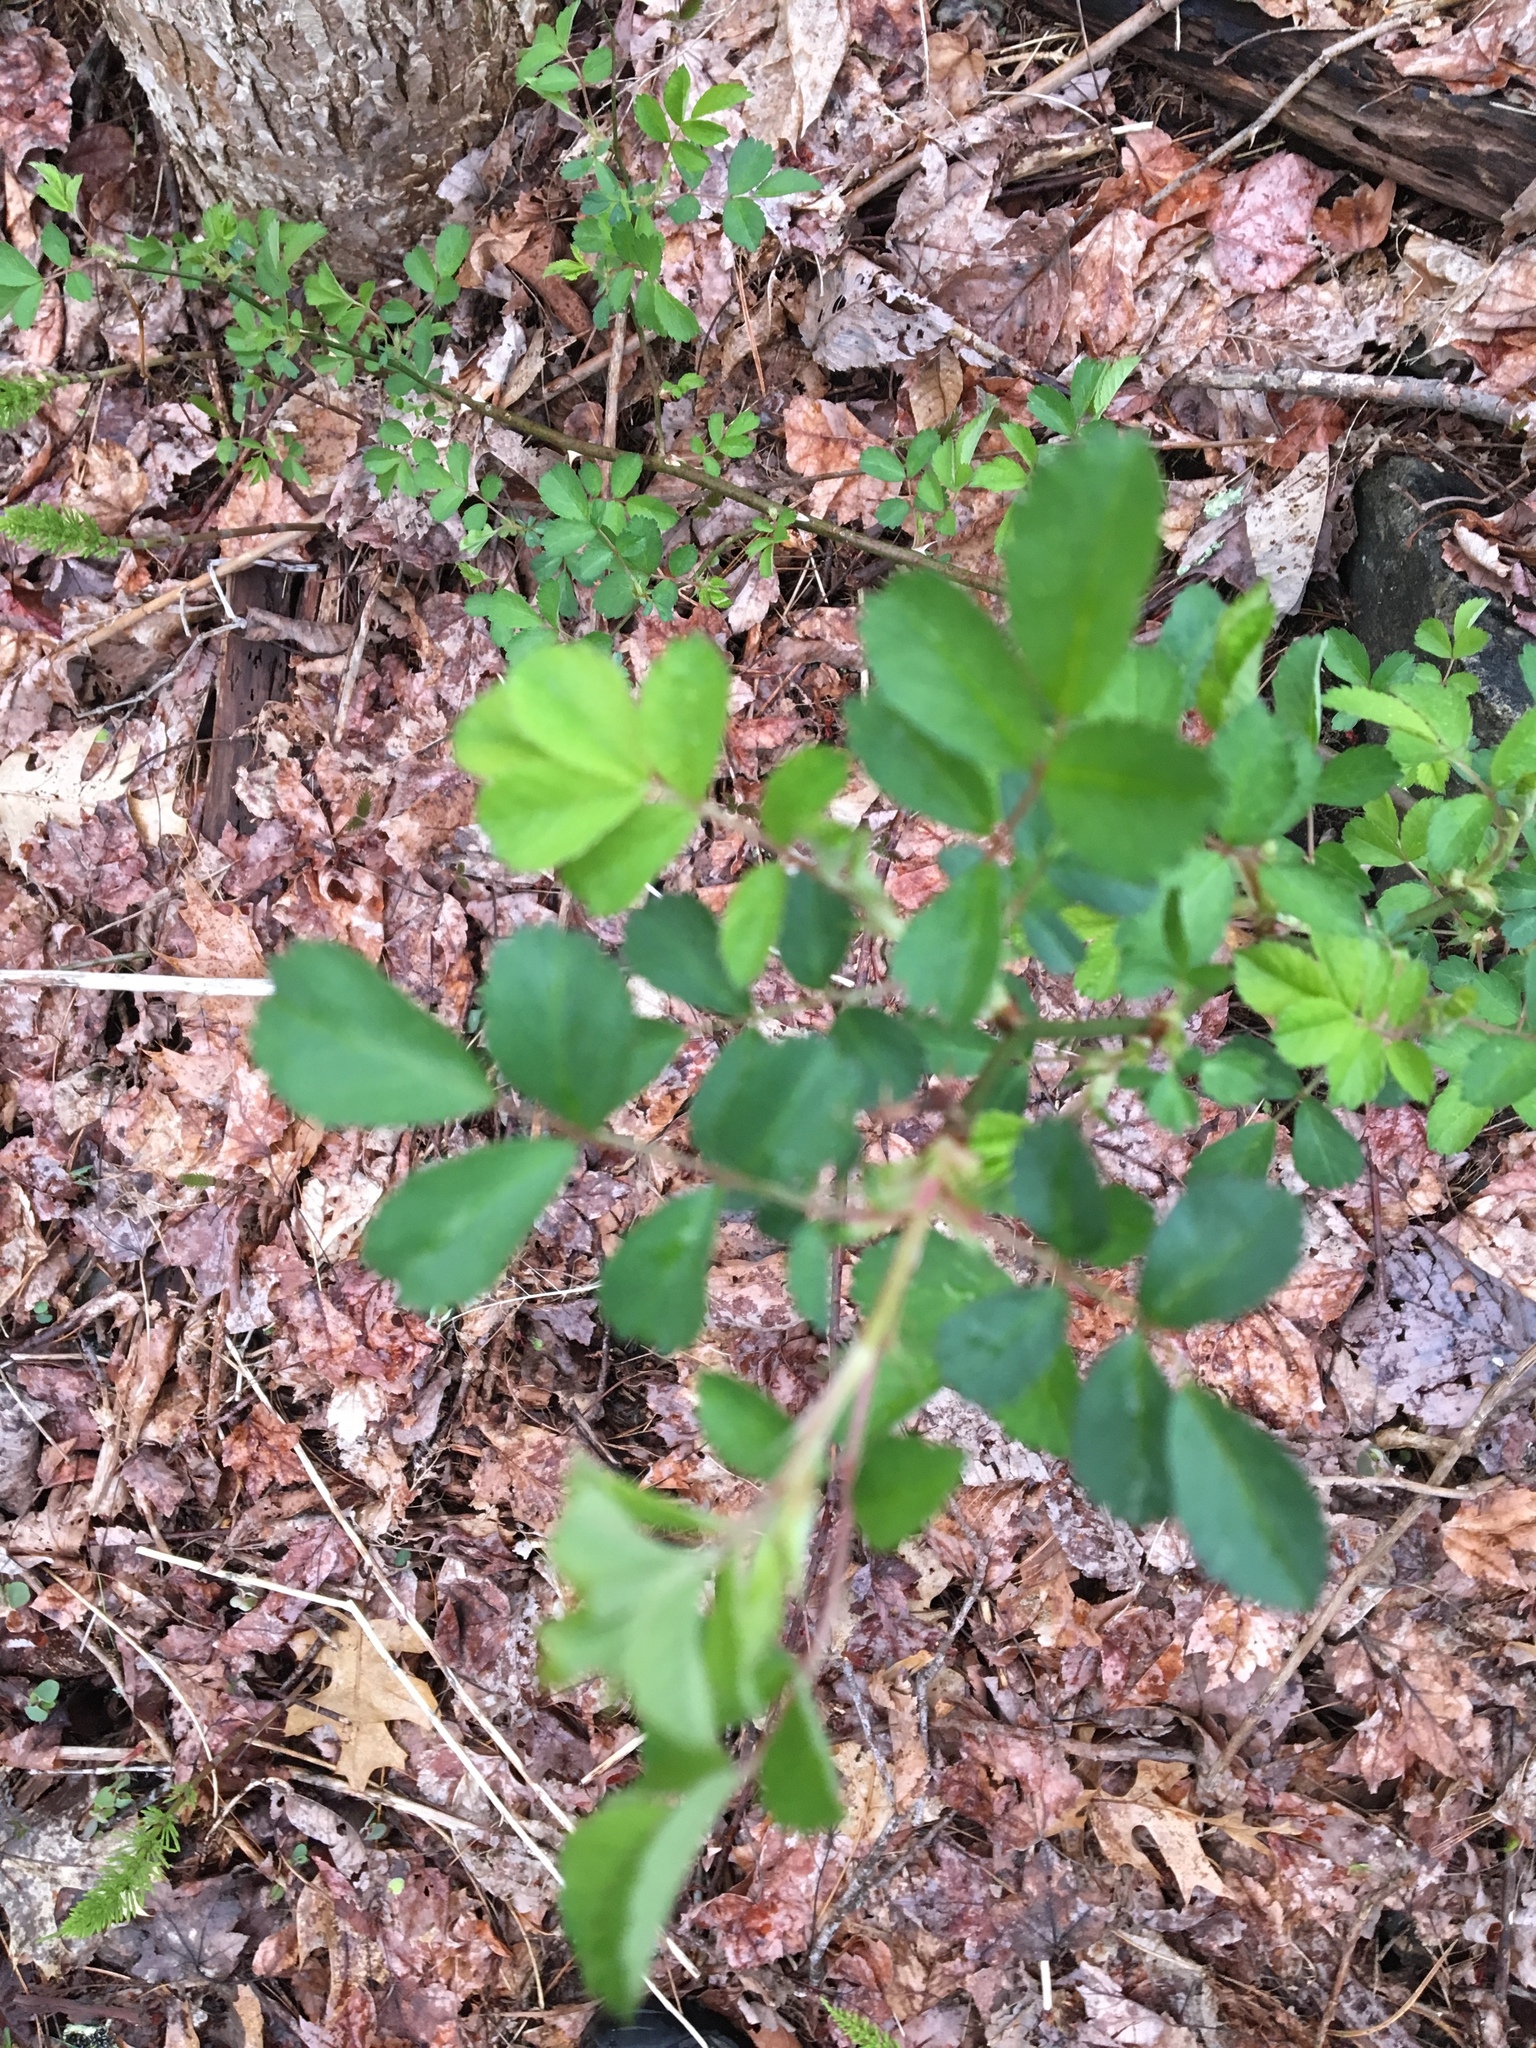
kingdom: Plantae
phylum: Tracheophyta
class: Magnoliopsida
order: Rosales
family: Rosaceae
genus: Rosa
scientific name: Rosa multiflora
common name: Multiflora rose
